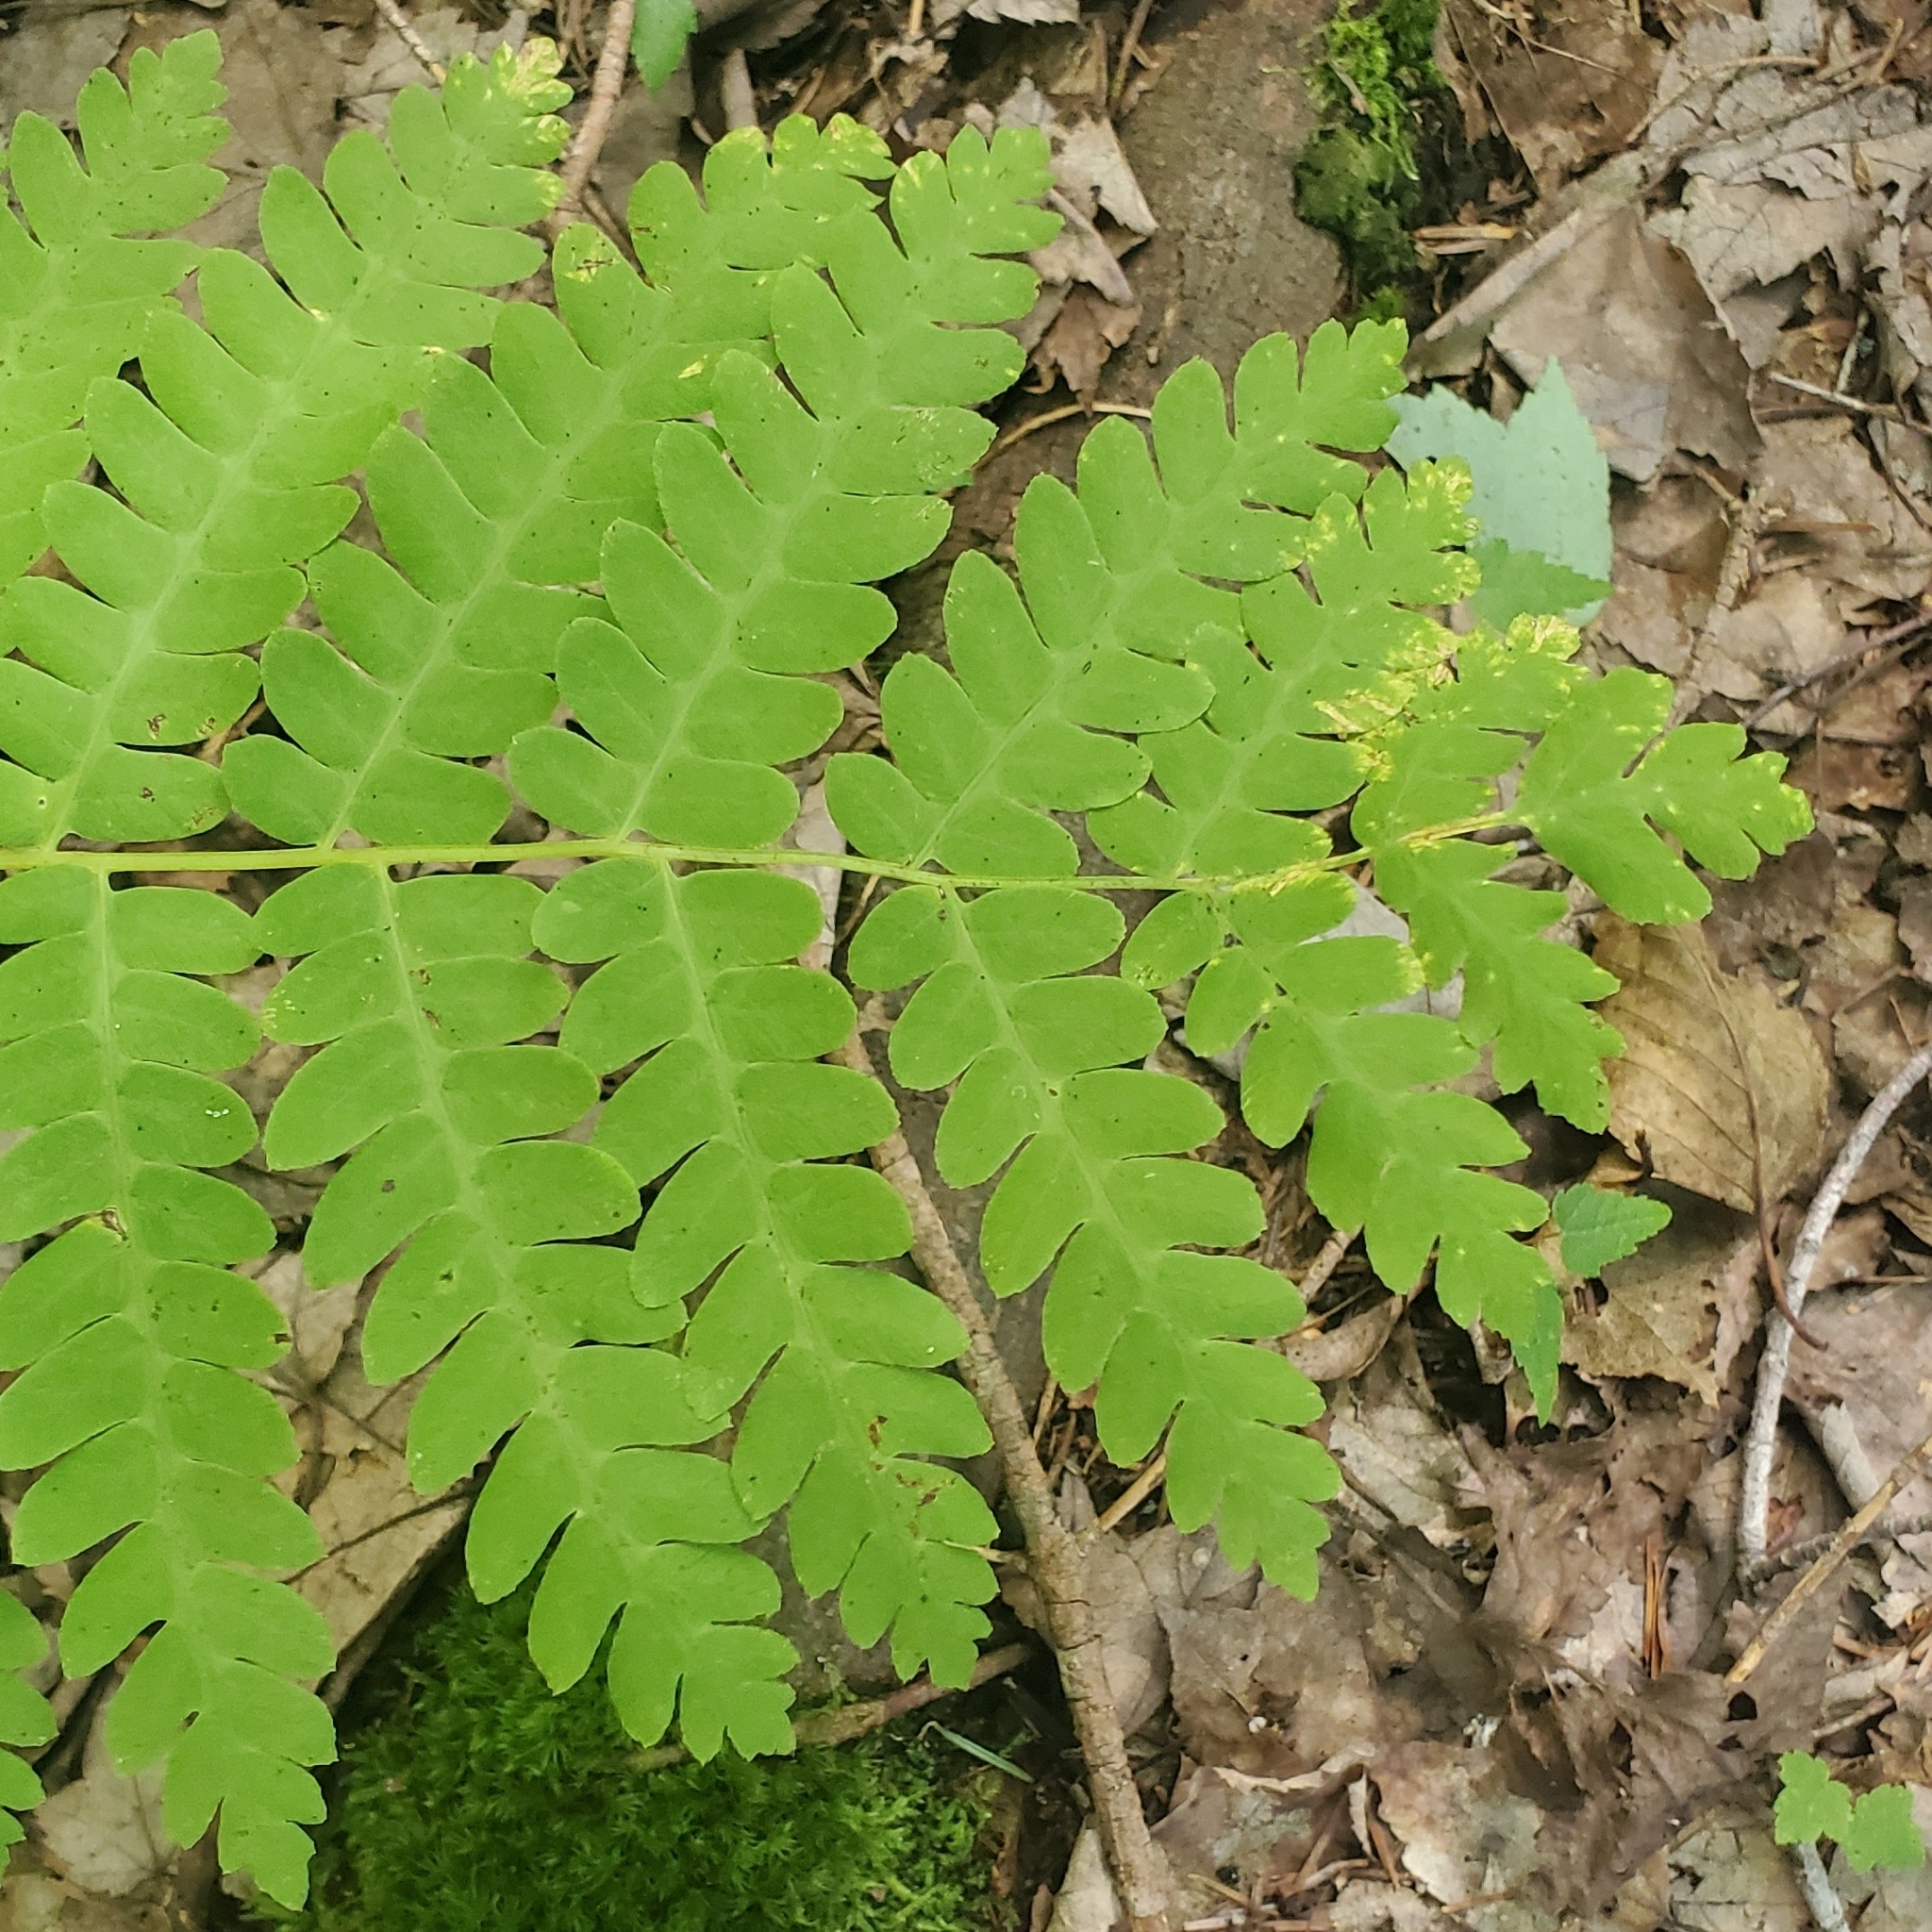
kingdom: Plantae
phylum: Tracheophyta
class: Polypodiopsida
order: Osmundales
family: Osmundaceae
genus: Claytosmunda
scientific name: Claytosmunda claytoniana
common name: Clayton's fern
